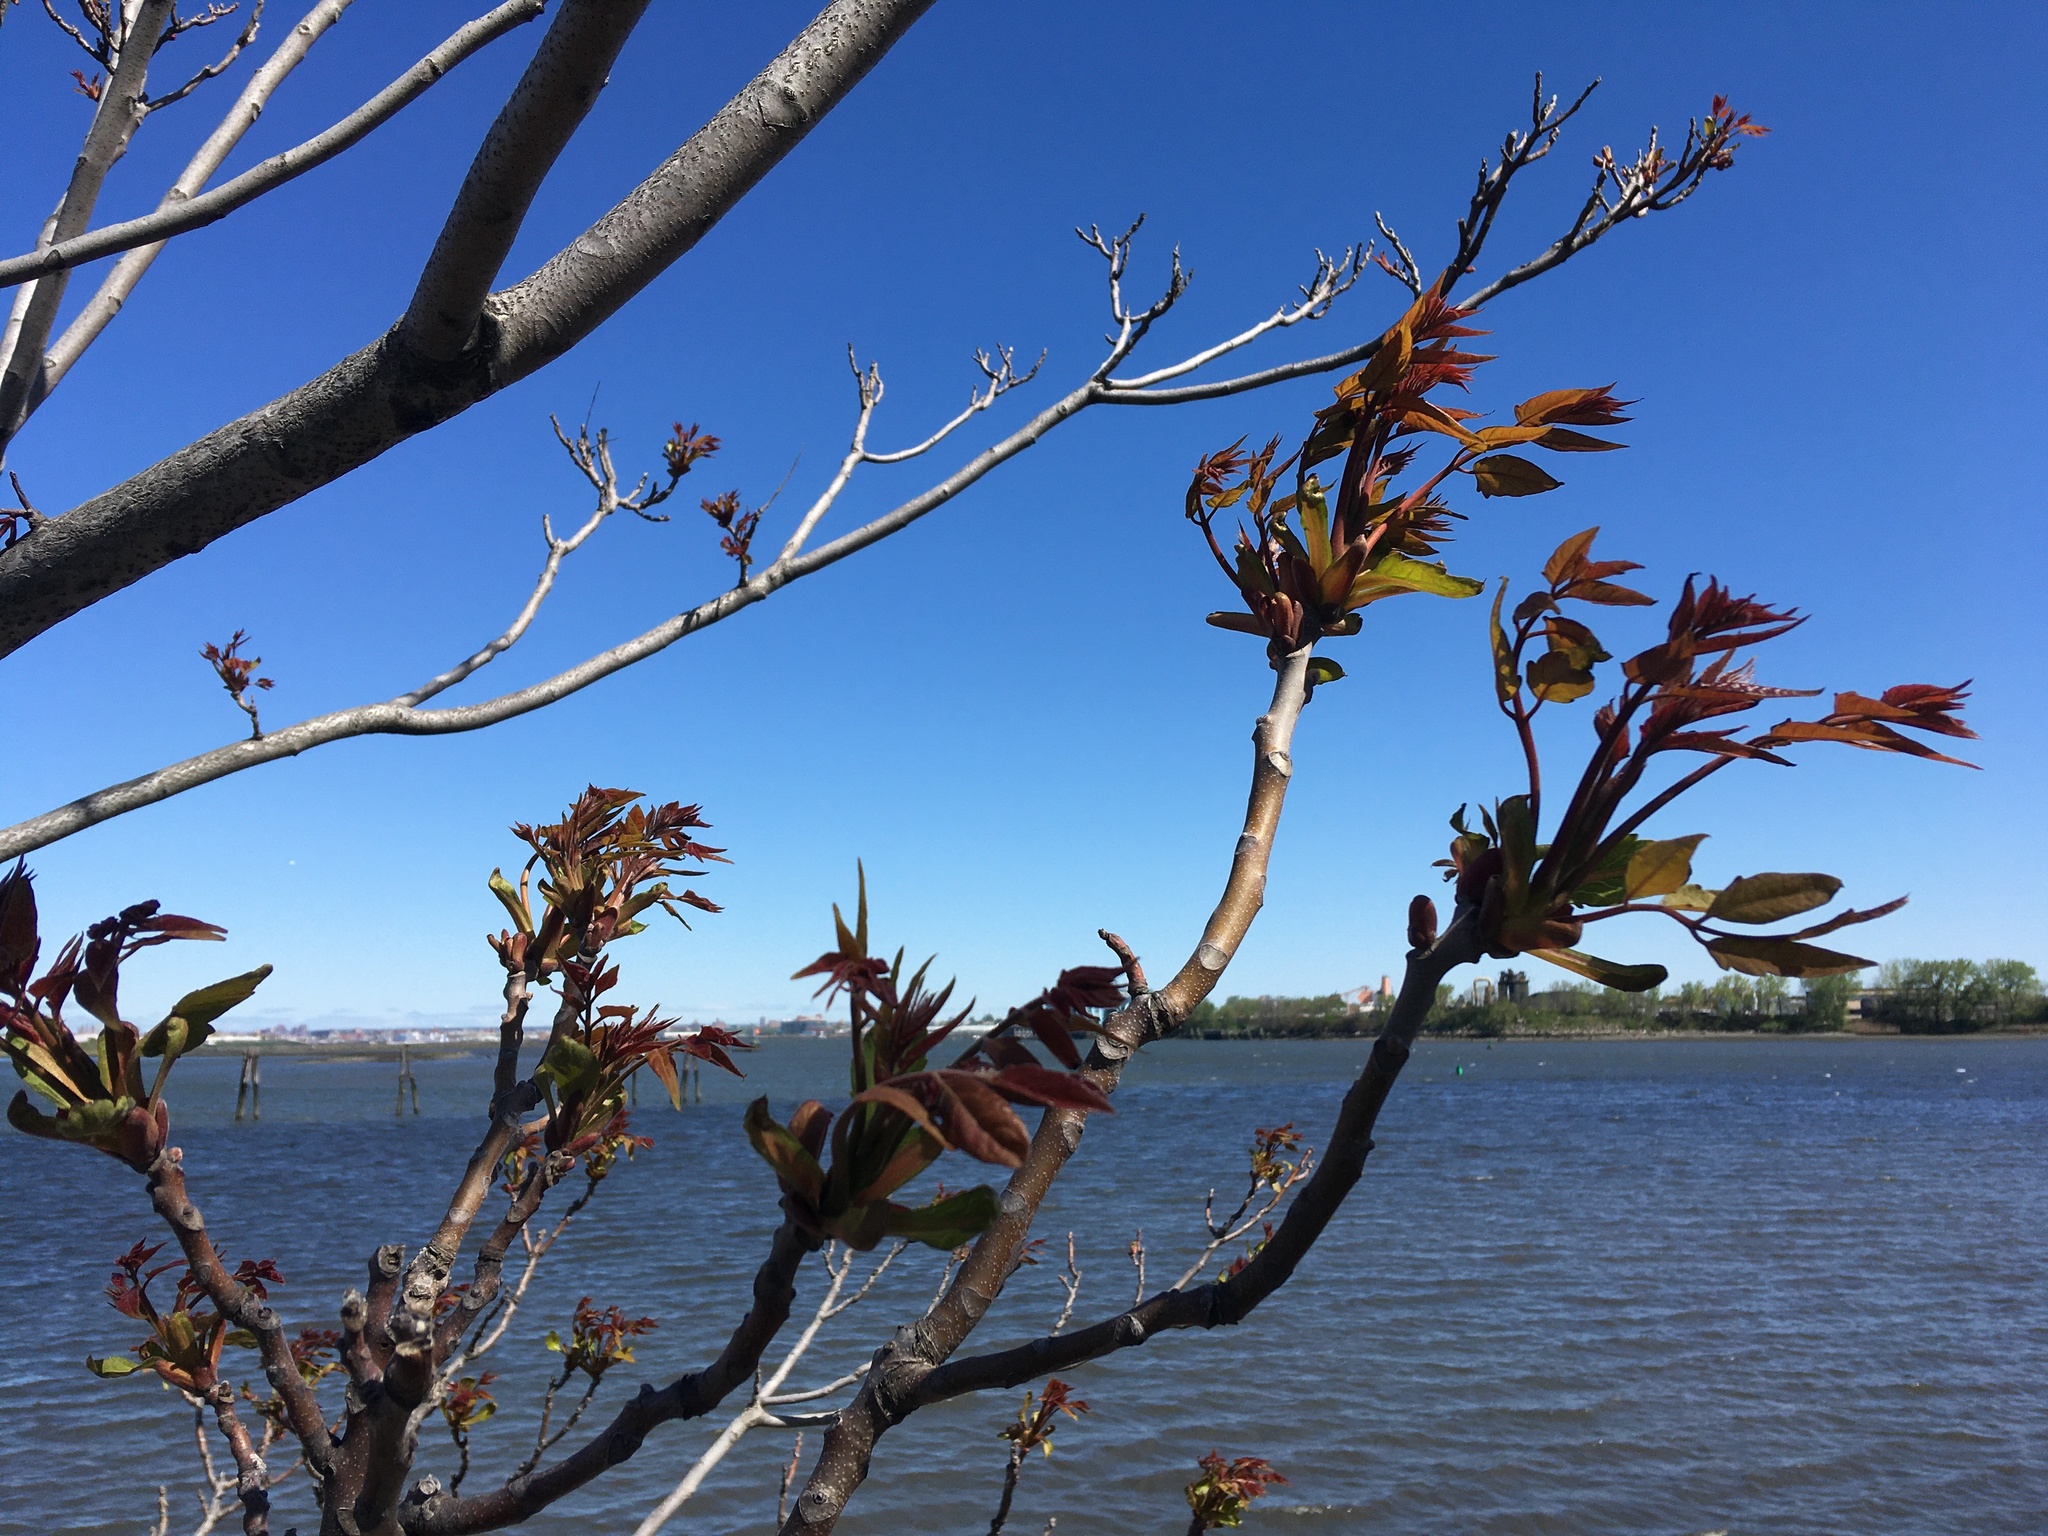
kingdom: Plantae
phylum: Tracheophyta
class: Magnoliopsida
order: Sapindales
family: Simaroubaceae
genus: Ailanthus
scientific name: Ailanthus altissima
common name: Tree-of-heaven
